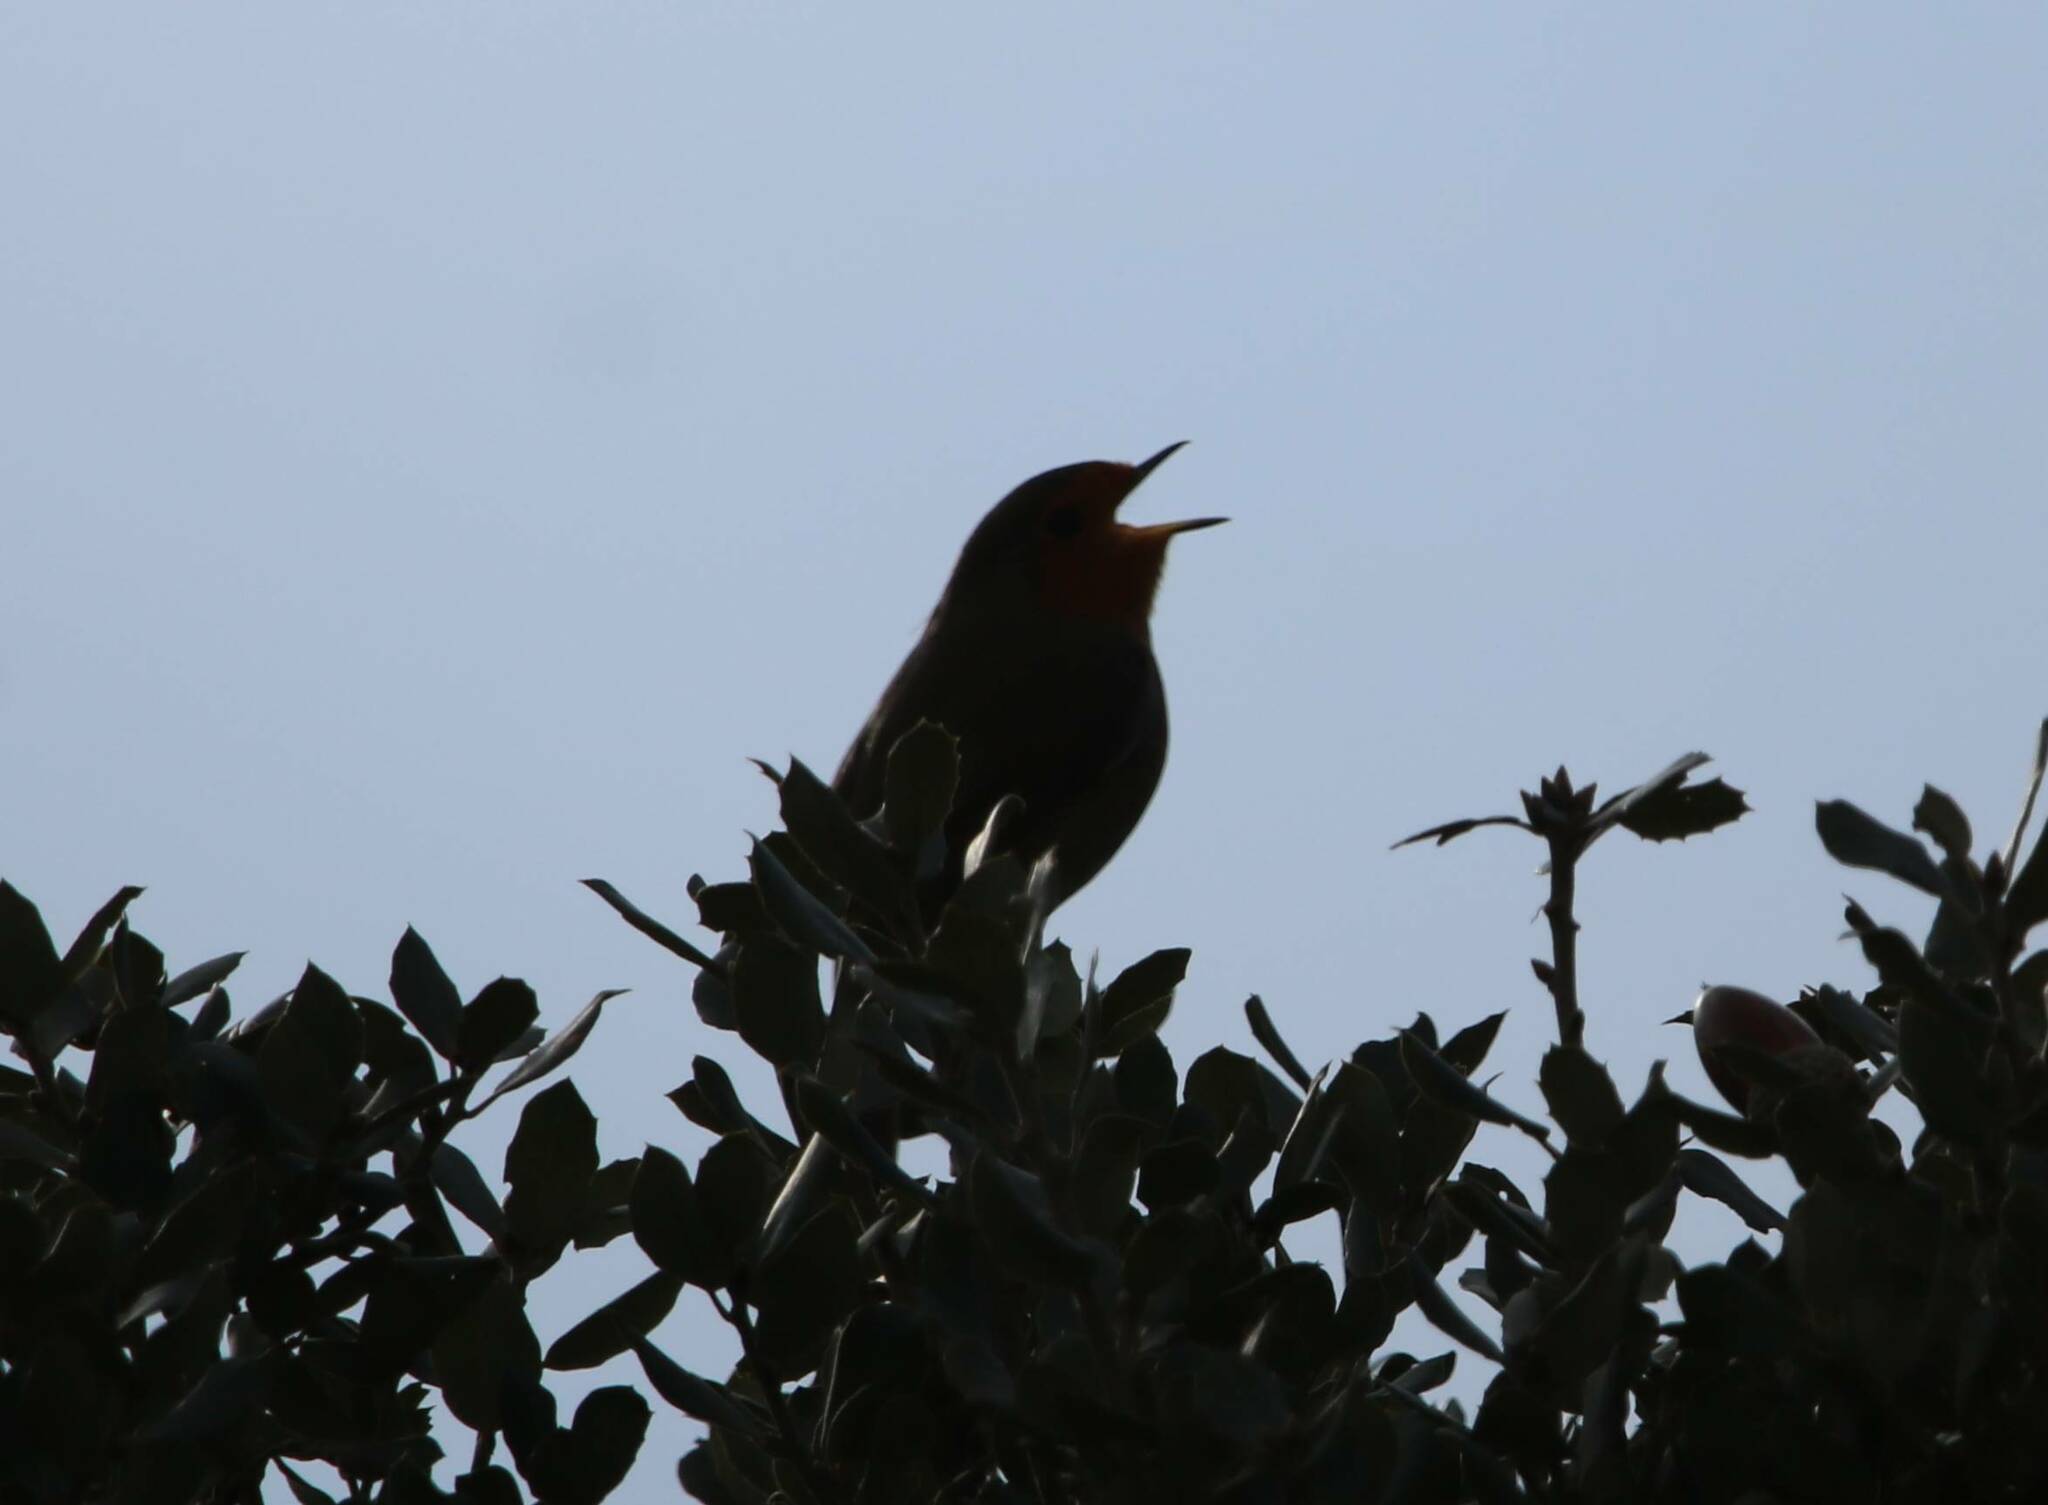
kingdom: Animalia
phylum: Chordata
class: Aves
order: Passeriformes
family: Muscicapidae
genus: Erithacus
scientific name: Erithacus rubecula
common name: European robin
